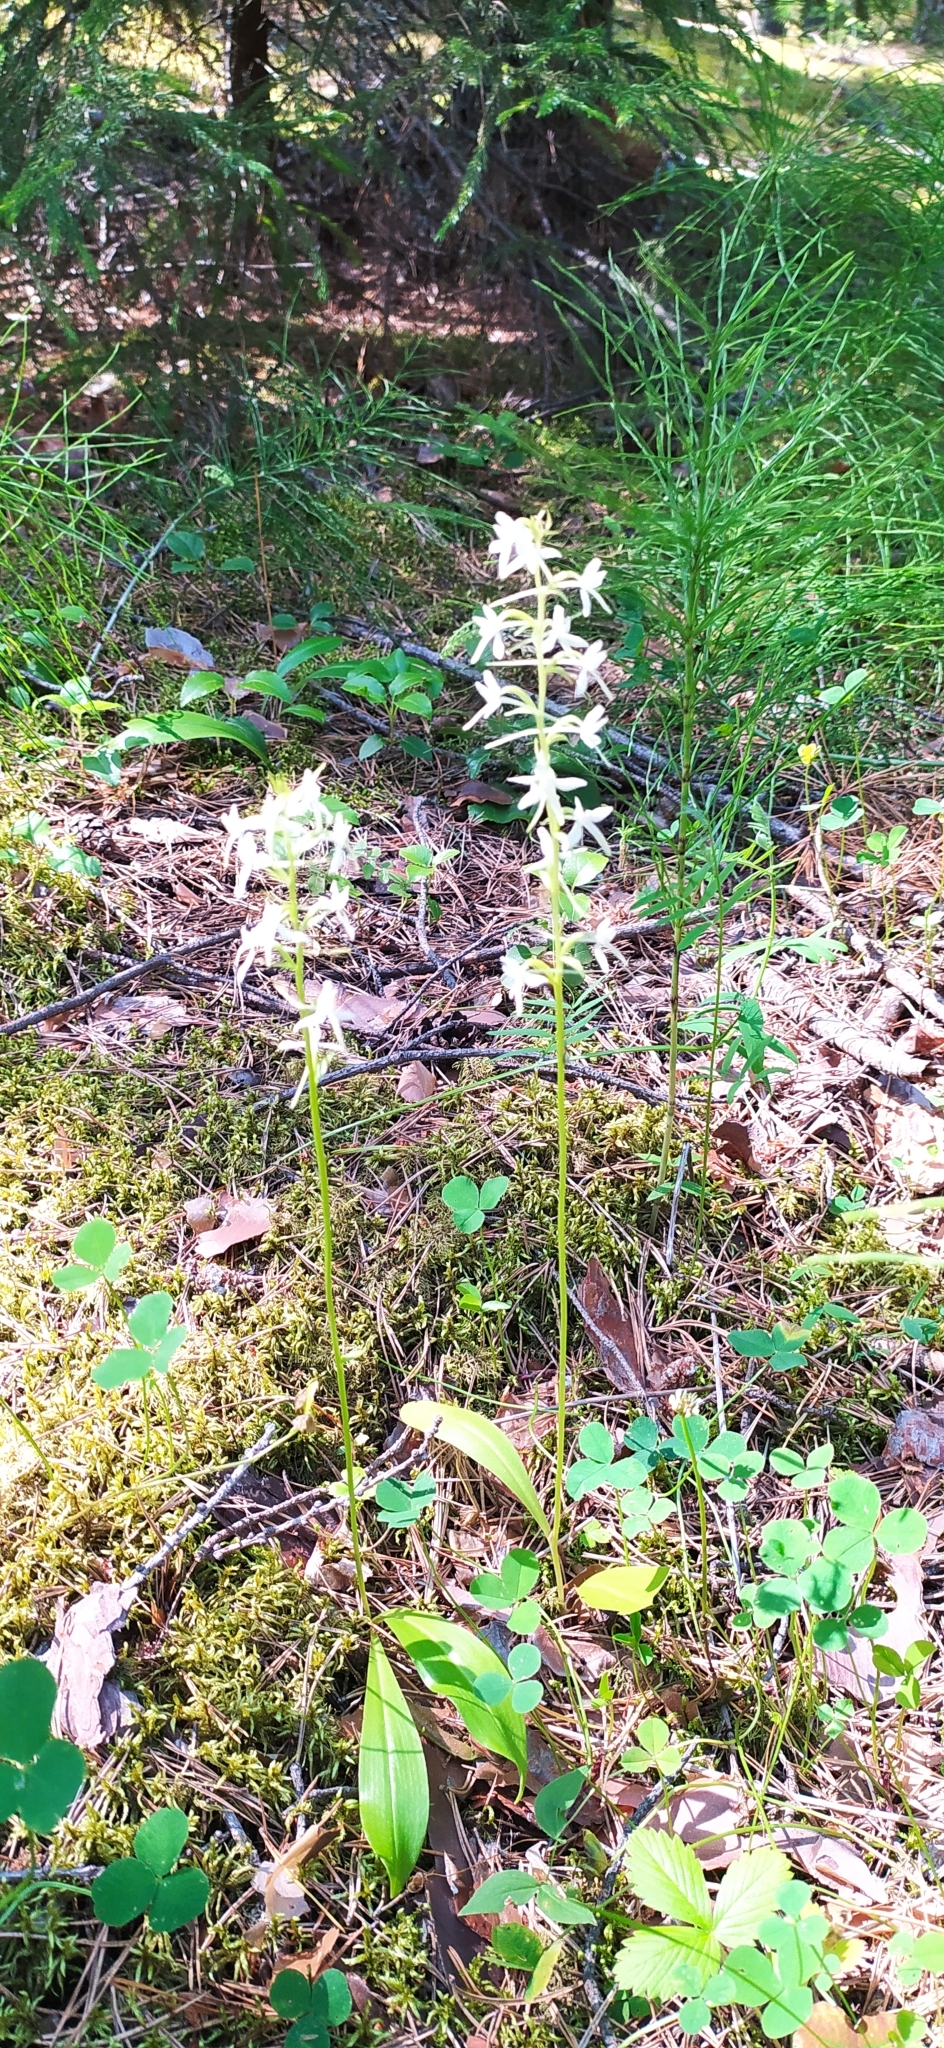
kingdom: Plantae
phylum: Tracheophyta
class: Liliopsida
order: Asparagales
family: Orchidaceae
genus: Platanthera
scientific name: Platanthera bifolia
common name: Lesser butterfly-orchid
